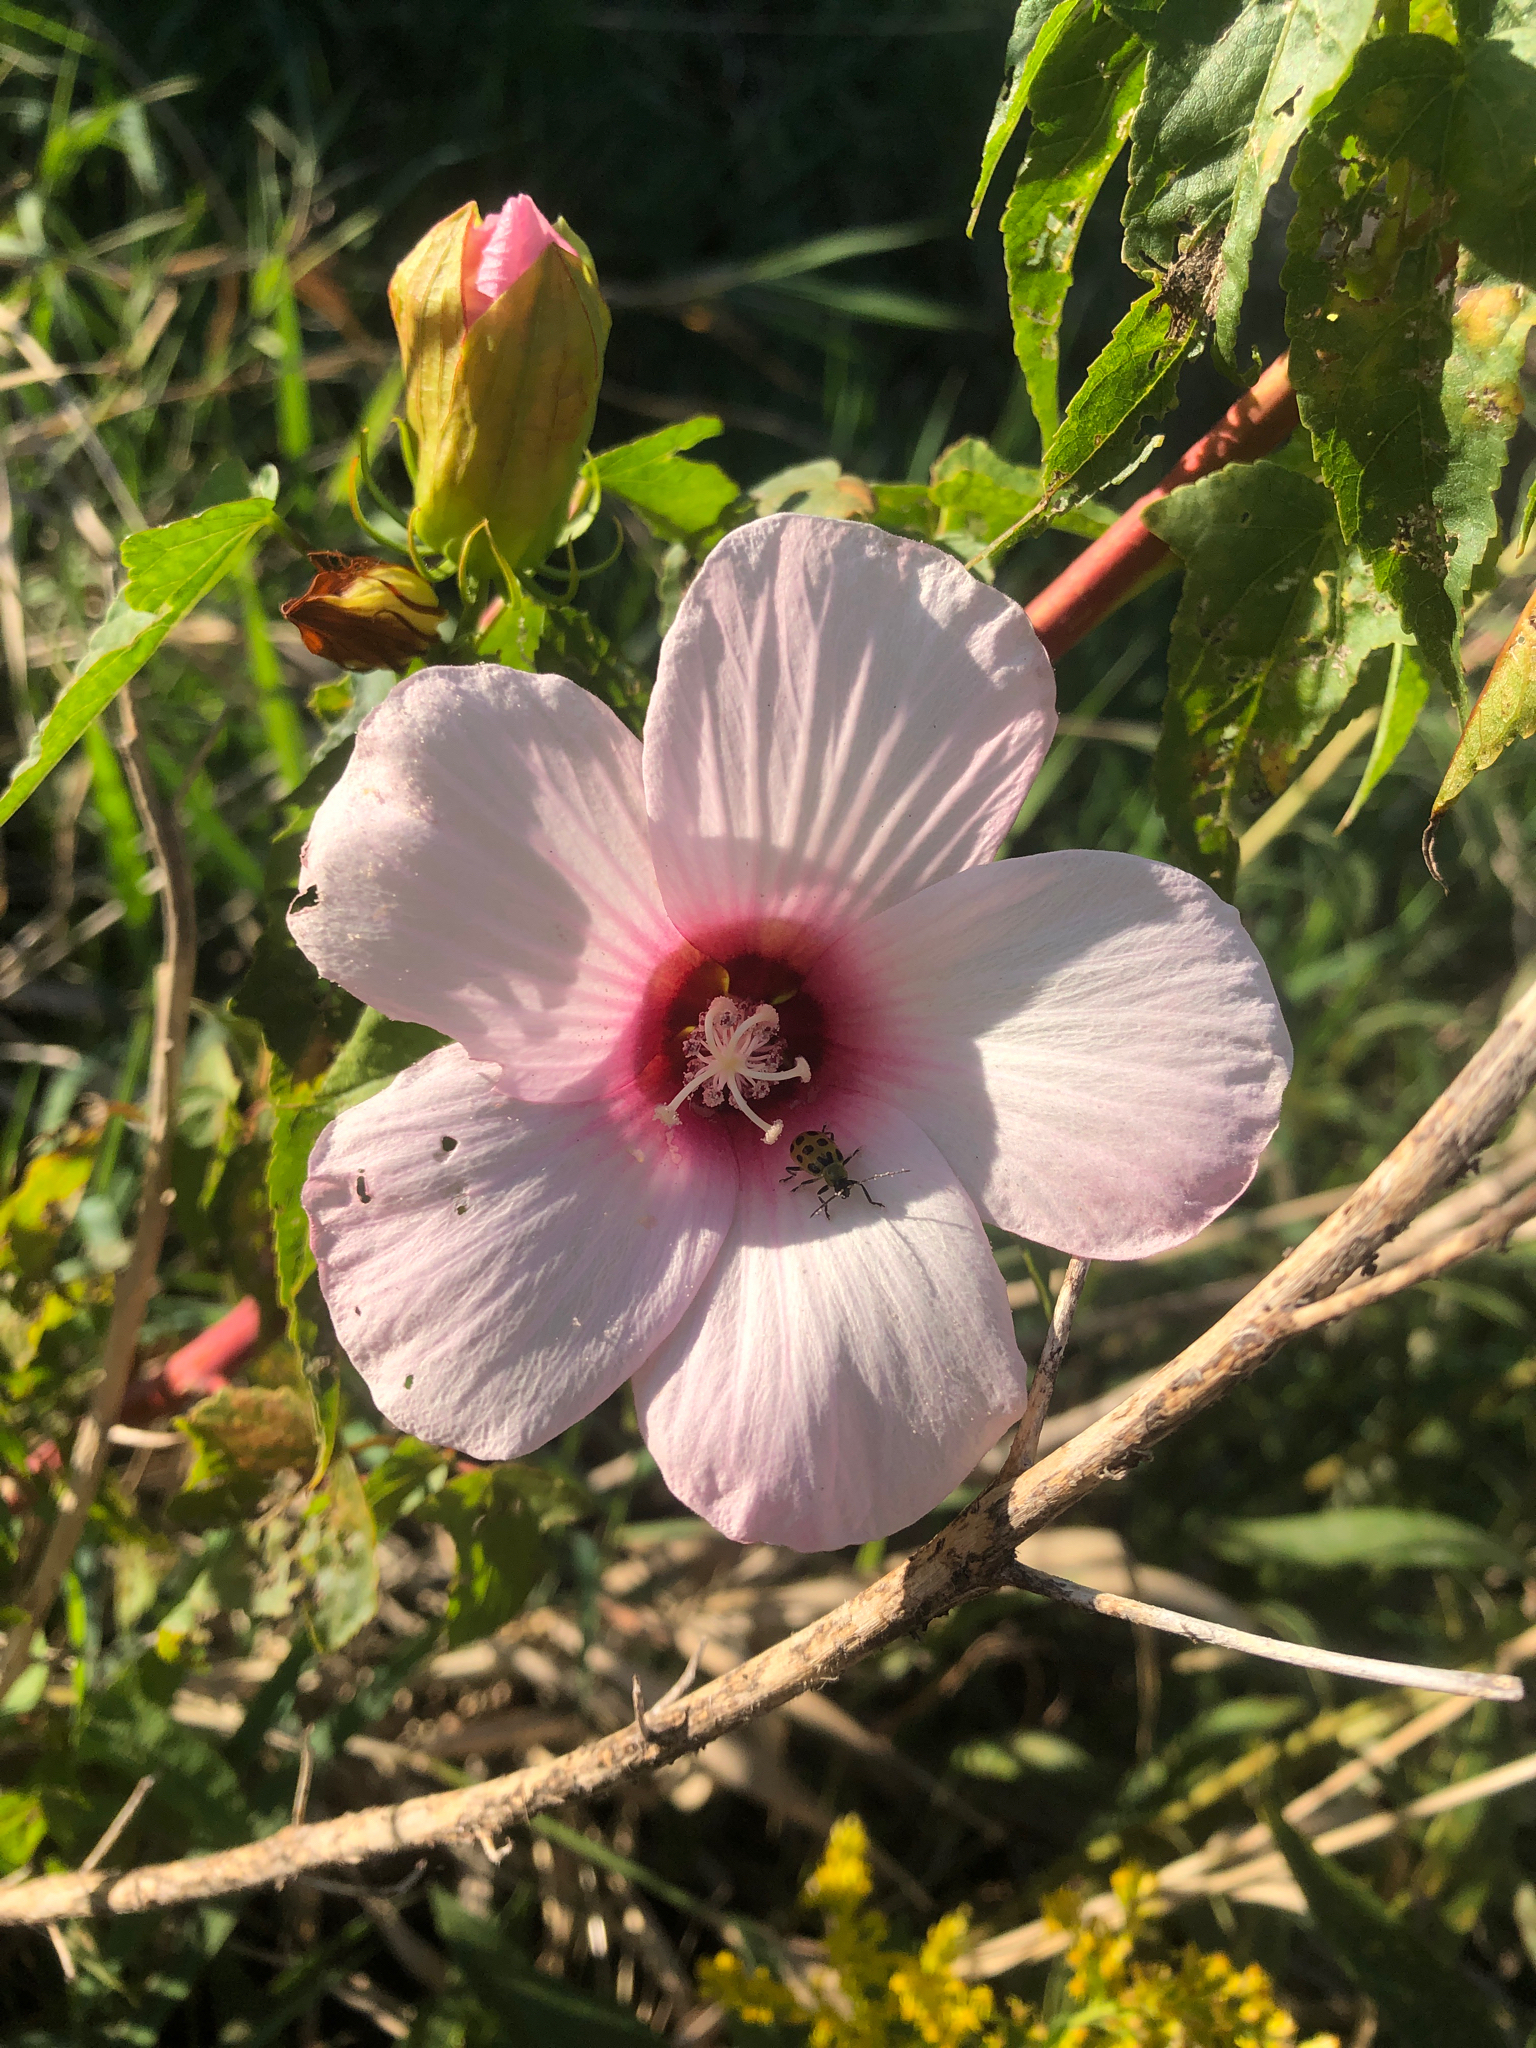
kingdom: Plantae
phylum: Tracheophyta
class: Magnoliopsida
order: Malvales
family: Malvaceae
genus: Hibiscus
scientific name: Hibiscus laevis
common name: Scarlet rose-mallow
